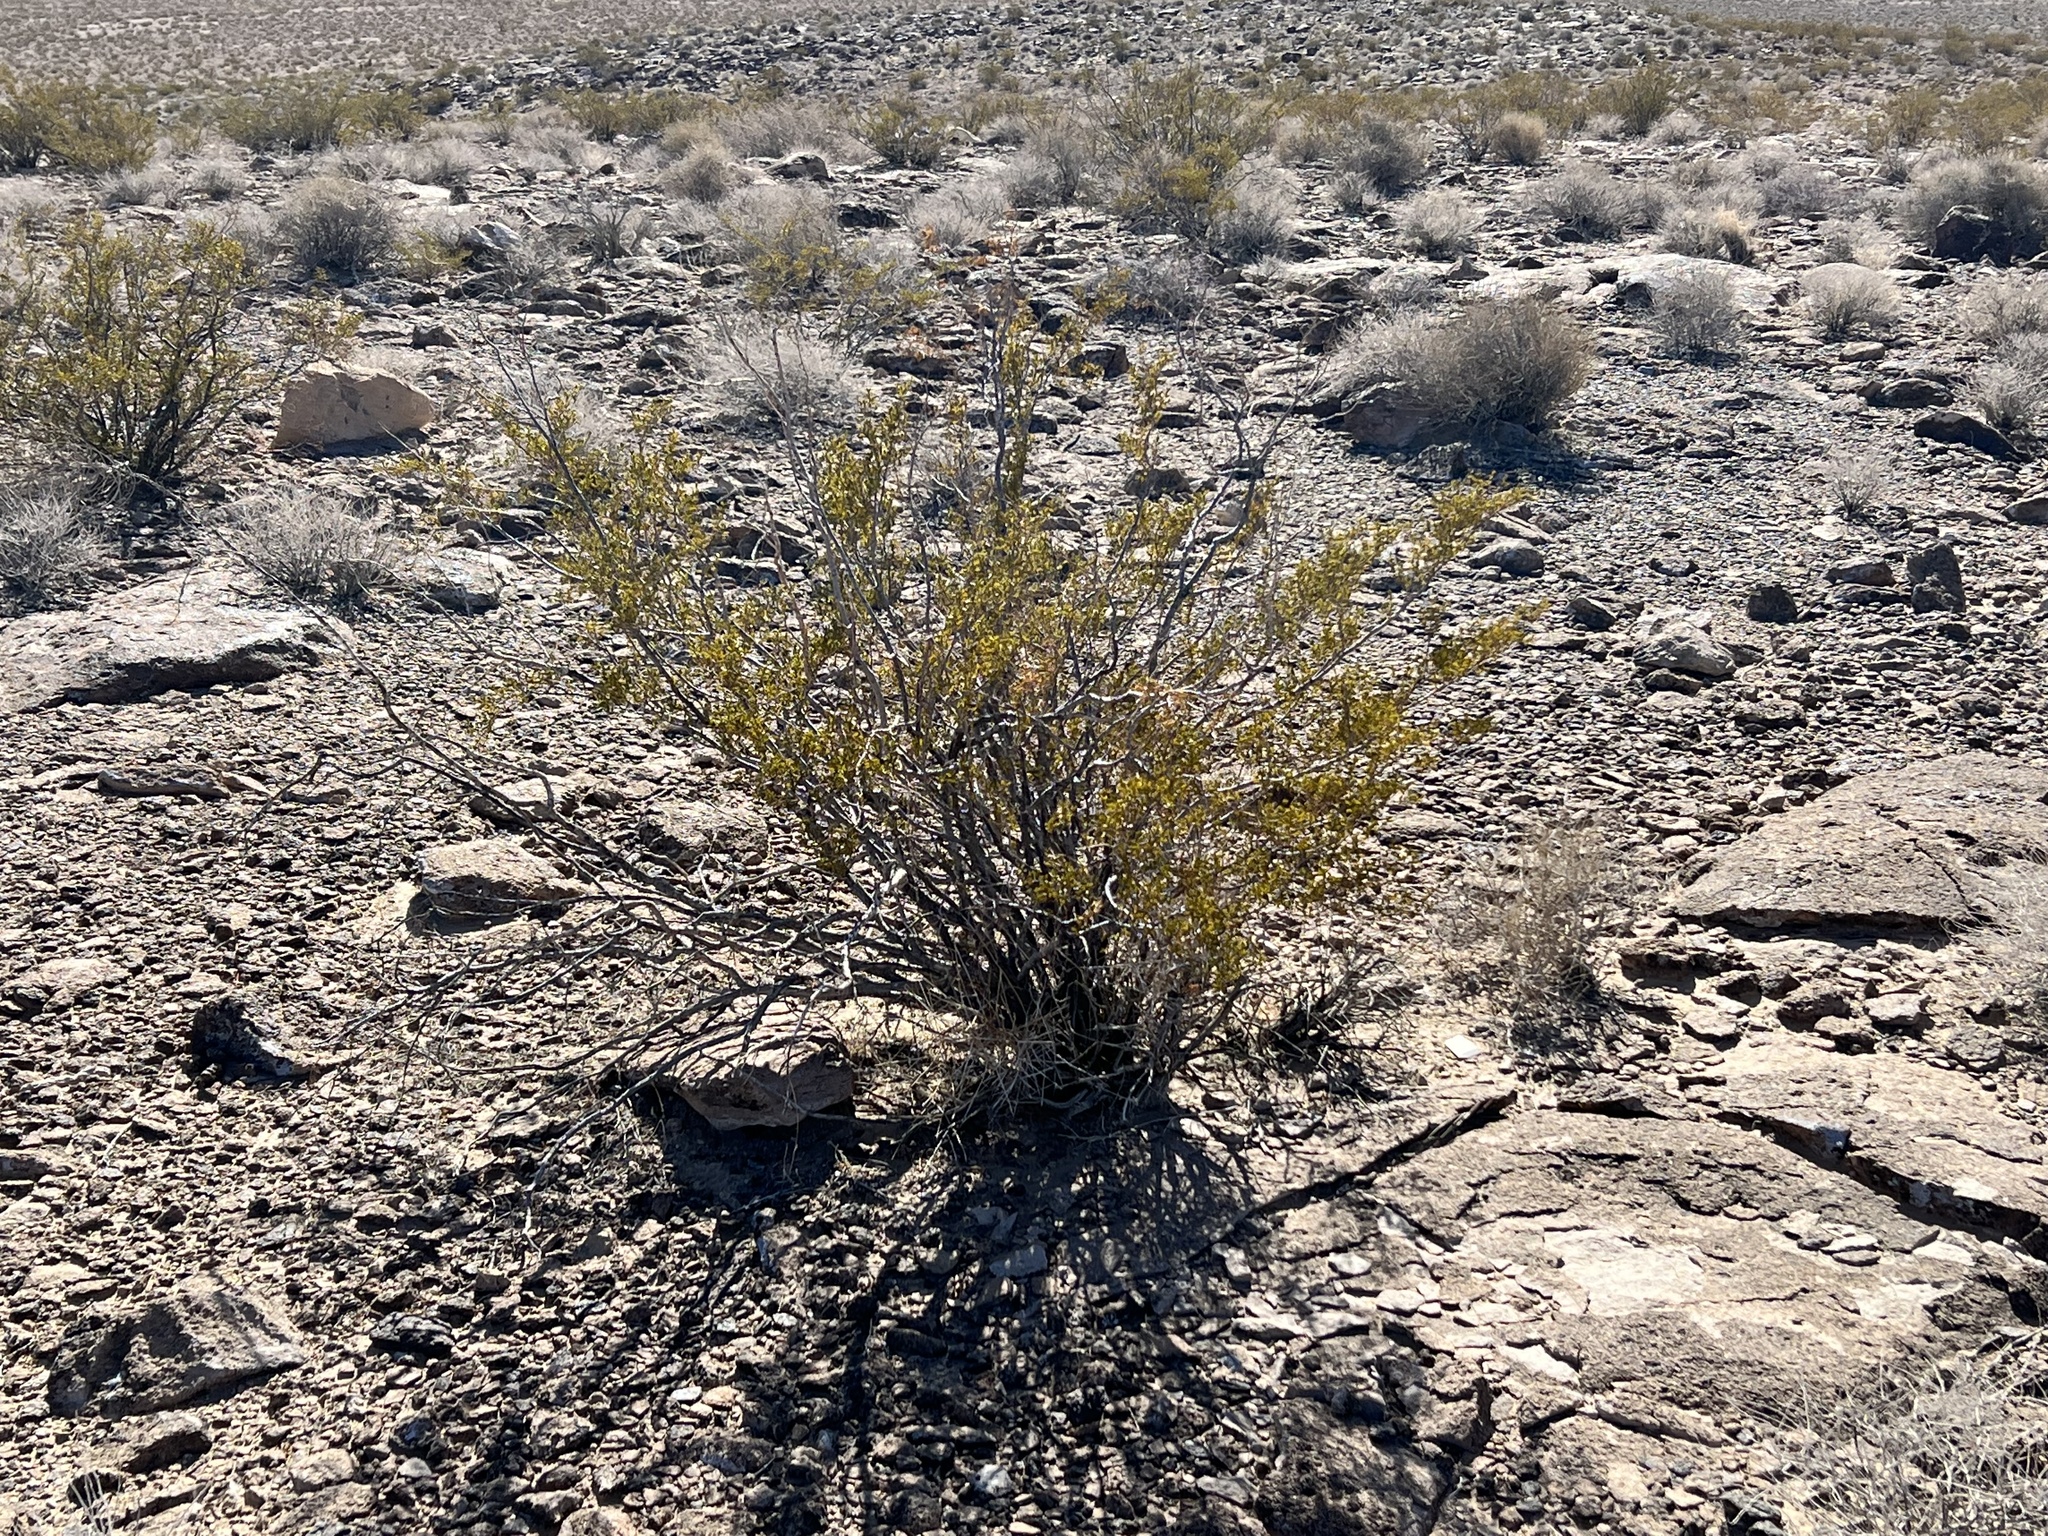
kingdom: Plantae
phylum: Tracheophyta
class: Magnoliopsida
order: Zygophyllales
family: Zygophyllaceae
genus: Larrea
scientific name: Larrea tridentata
